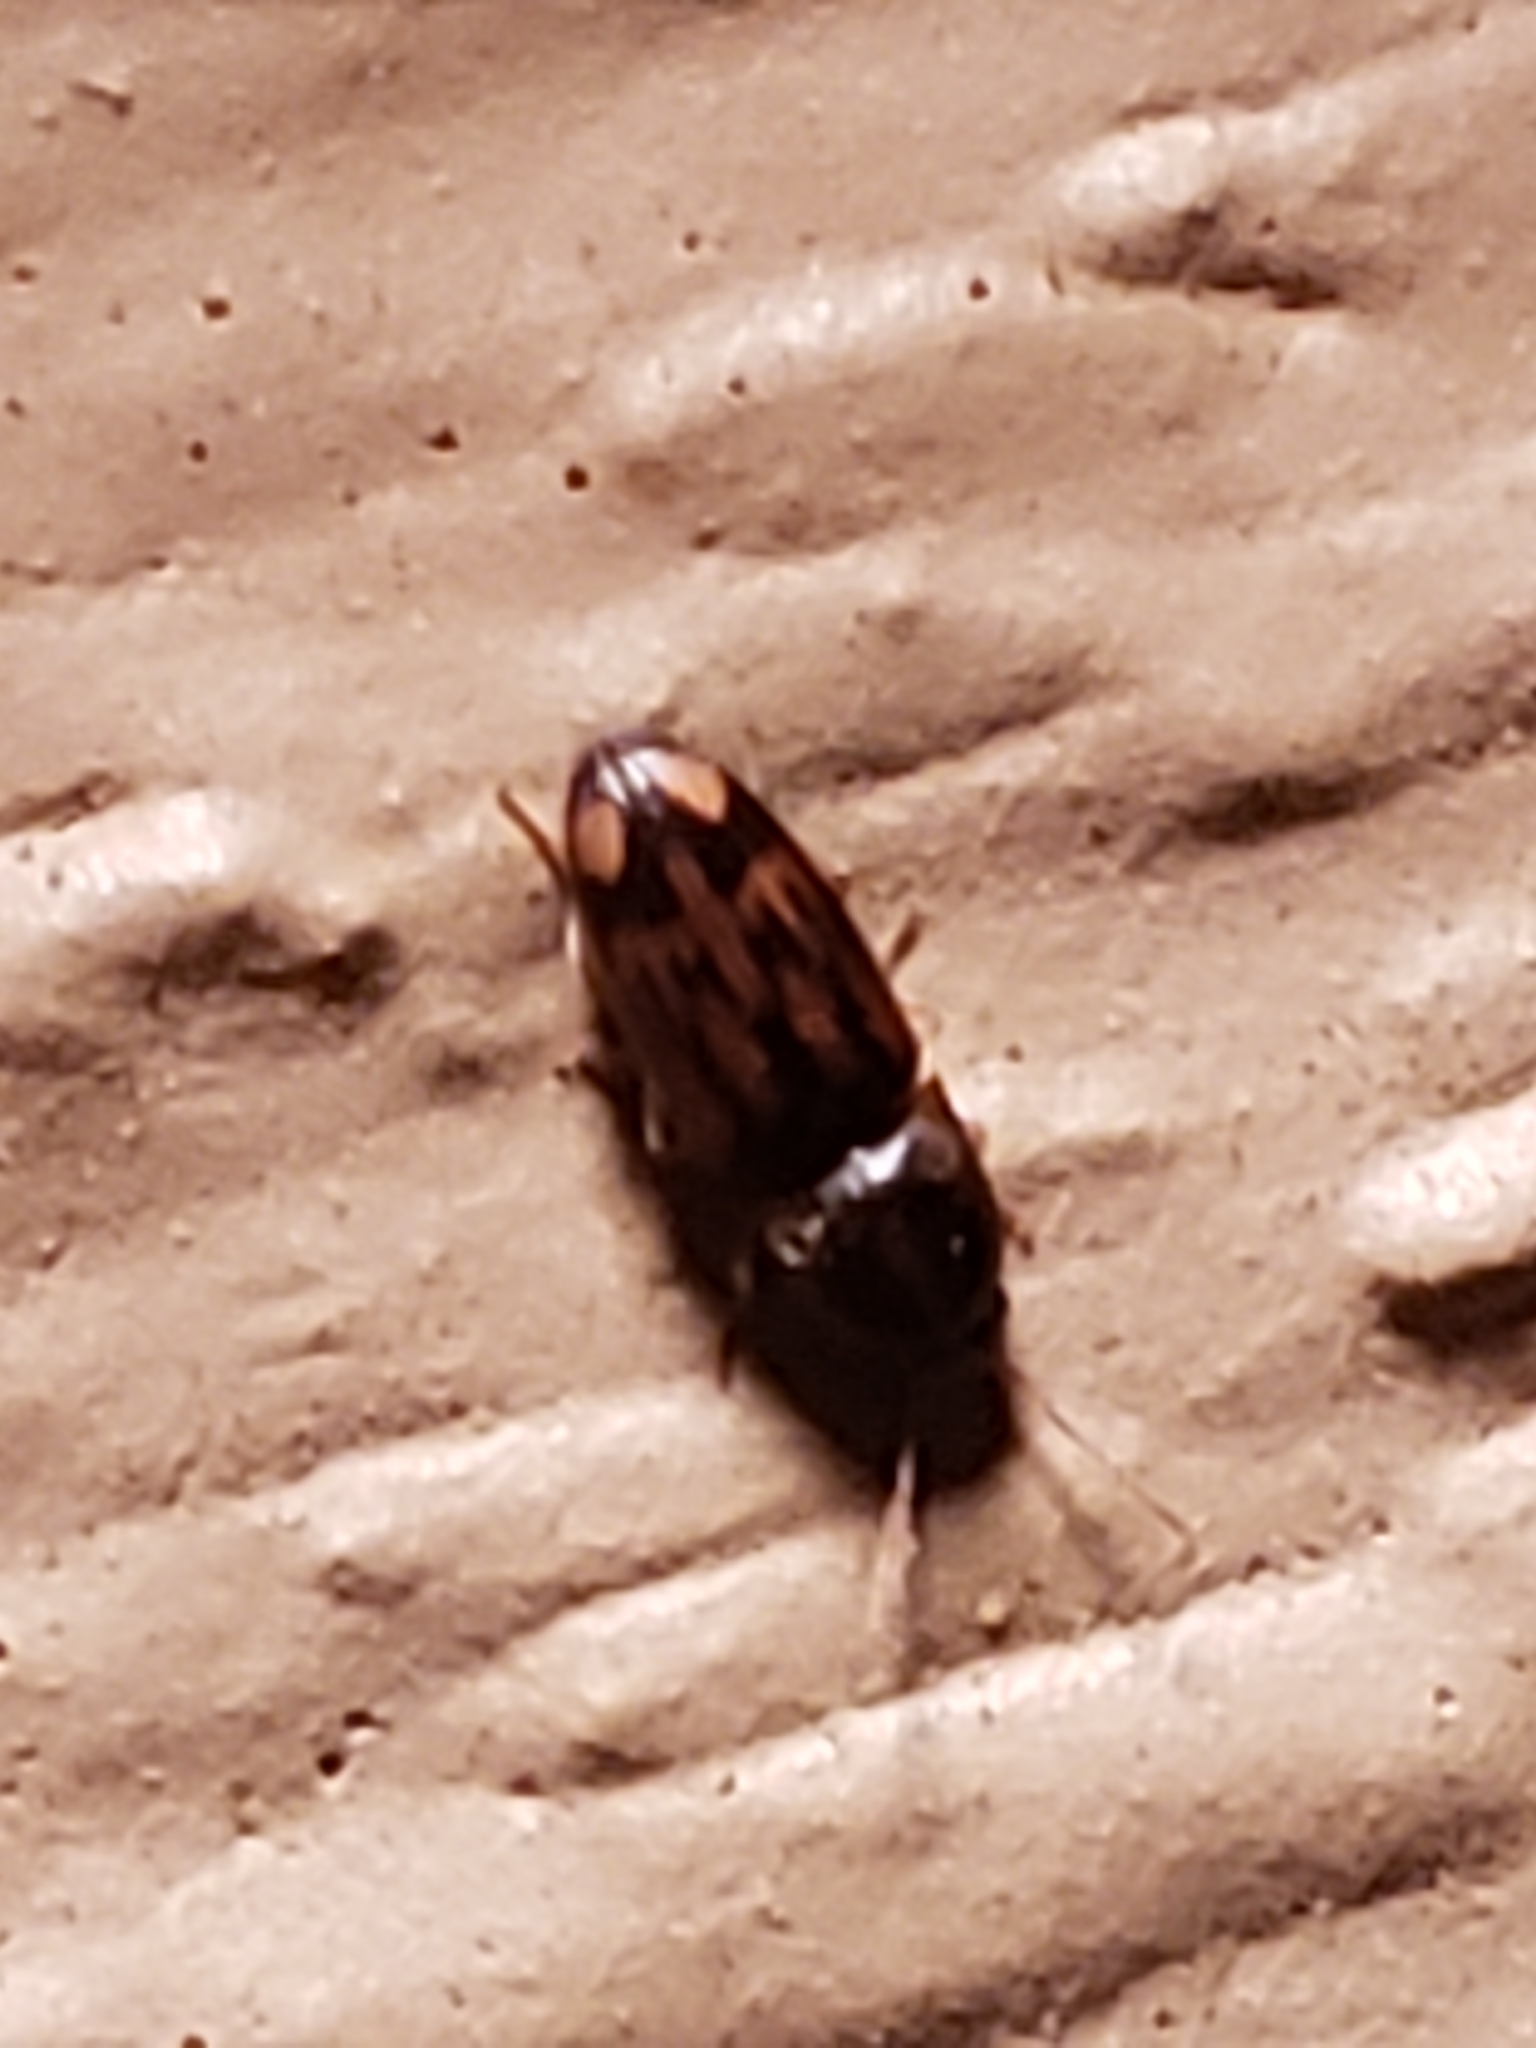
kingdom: Animalia
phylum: Arthropoda
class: Insecta
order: Coleoptera
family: Elateridae
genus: Monocrepidius
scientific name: Monocrepidius bellus
